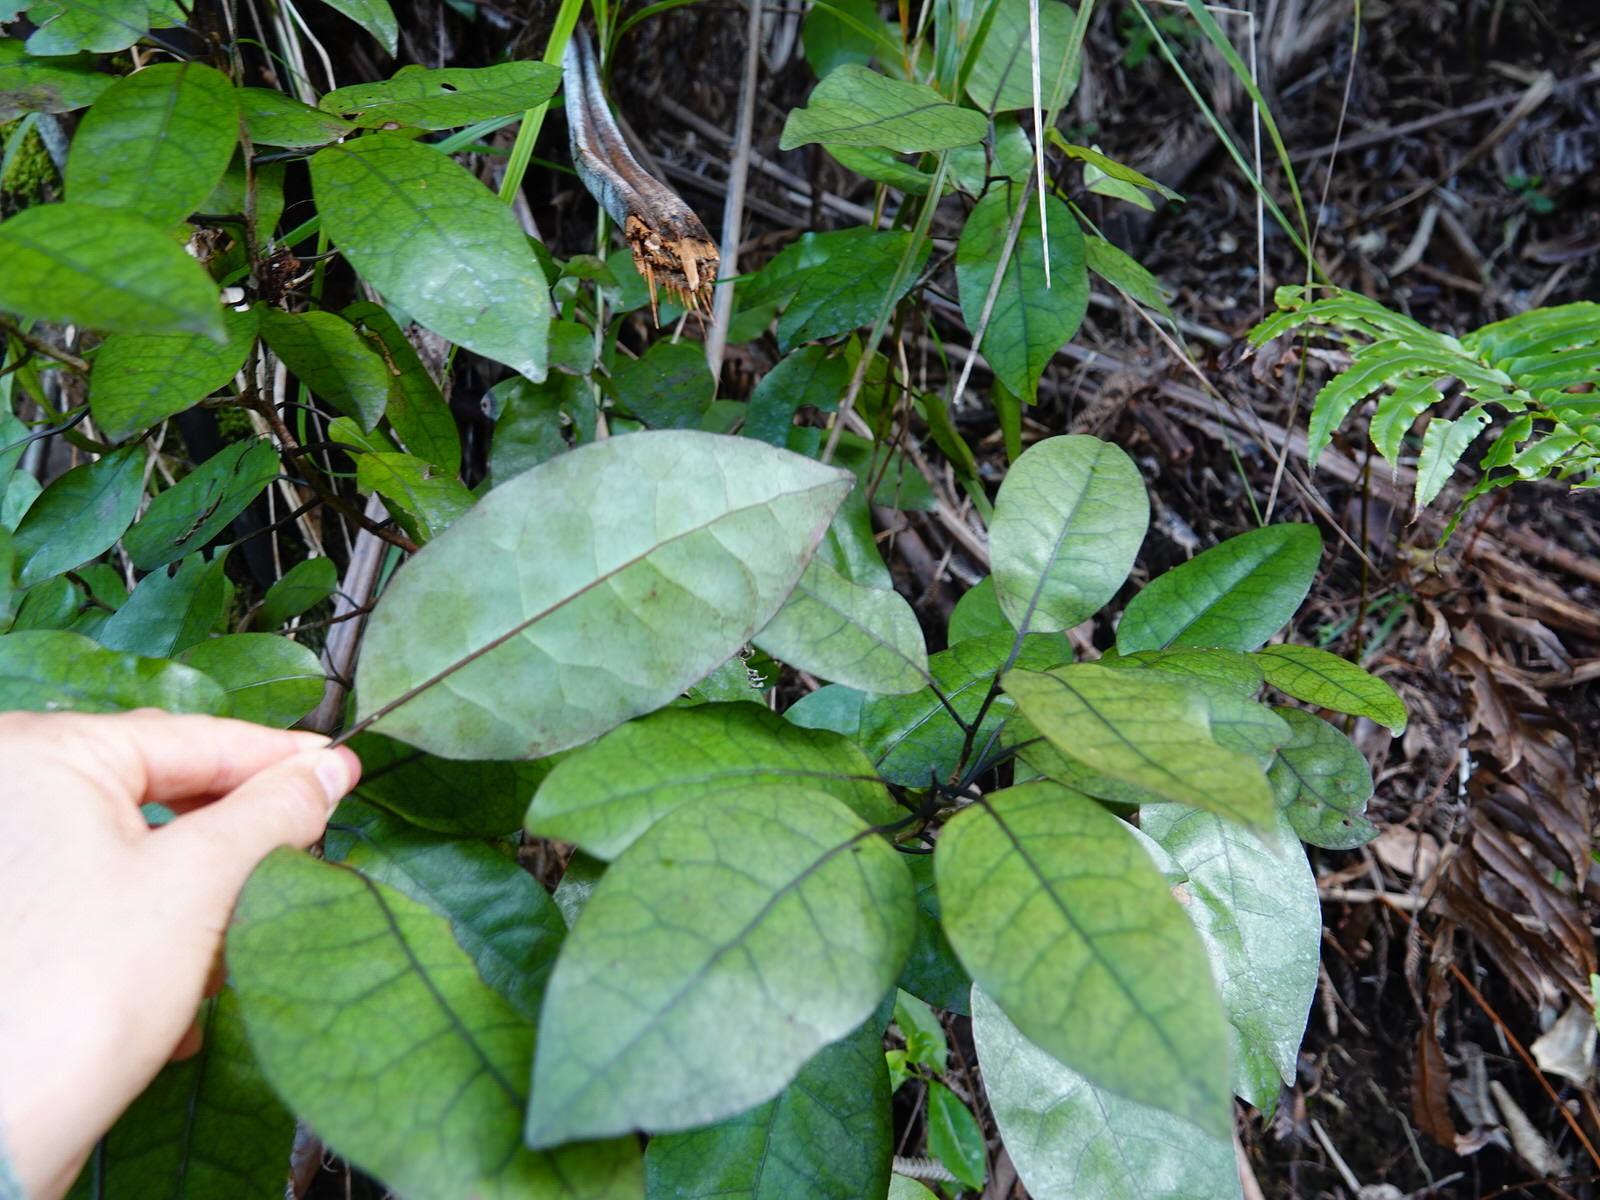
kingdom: Plantae
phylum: Tracheophyta
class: Magnoliopsida
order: Laurales
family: Lauraceae
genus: Litsea
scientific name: Litsea calicaris
